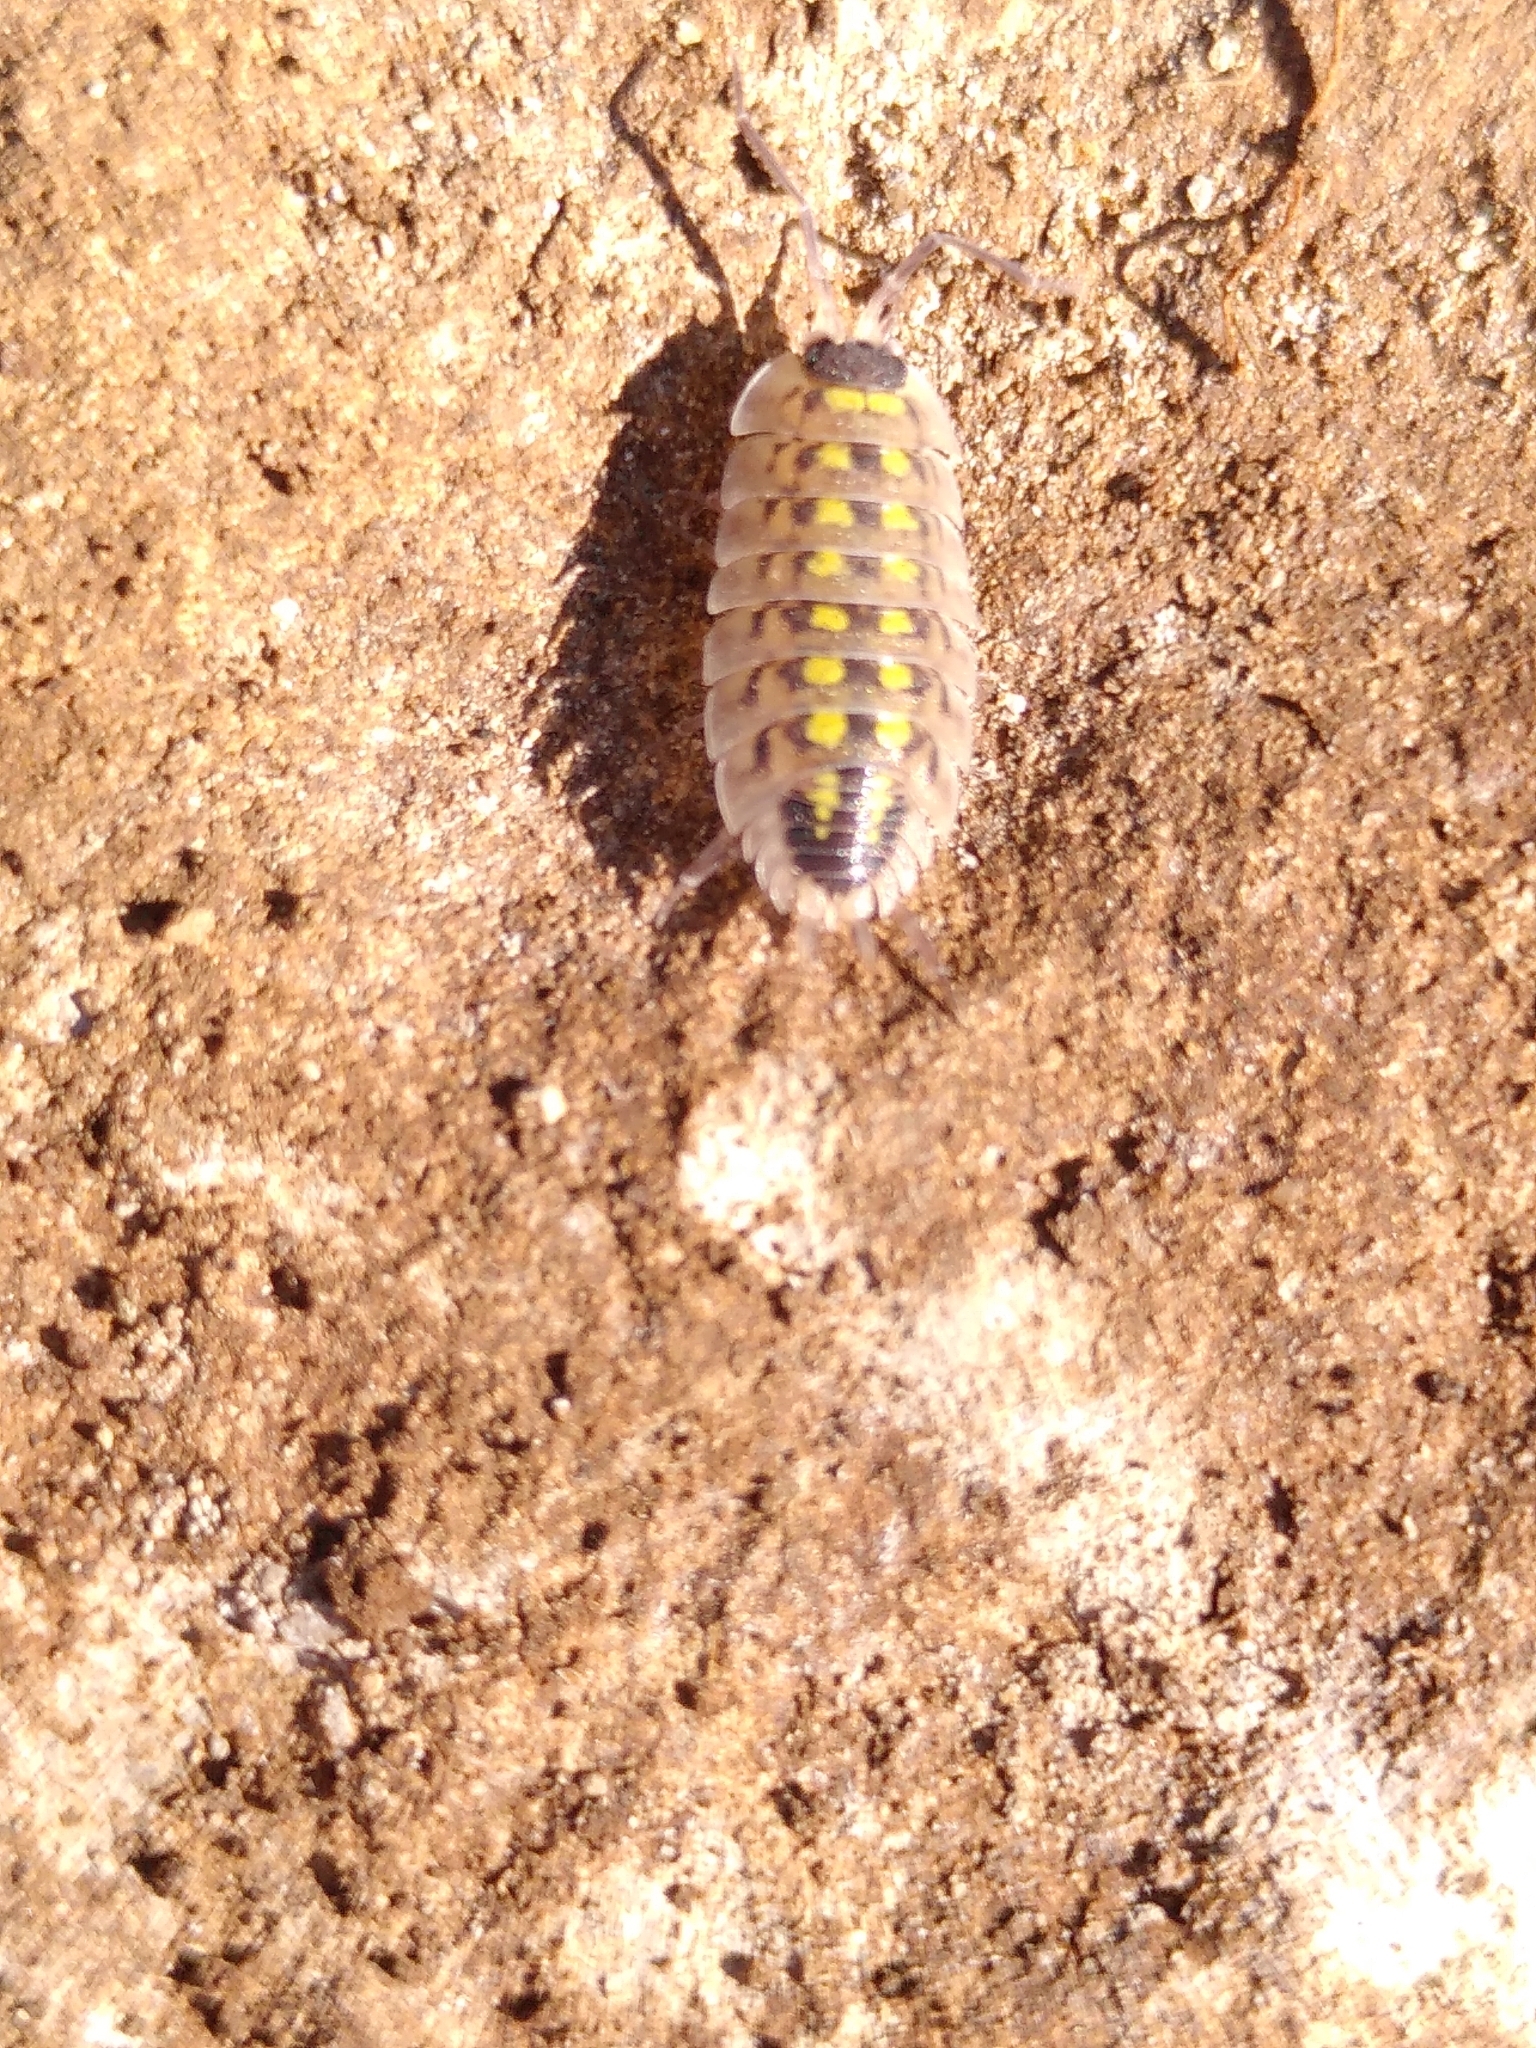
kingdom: Animalia
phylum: Arthropoda
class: Malacostraca
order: Isopoda
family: Porcellionidae
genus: Porcellio
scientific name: Porcellio spinicornis
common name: Painted woodlouse
